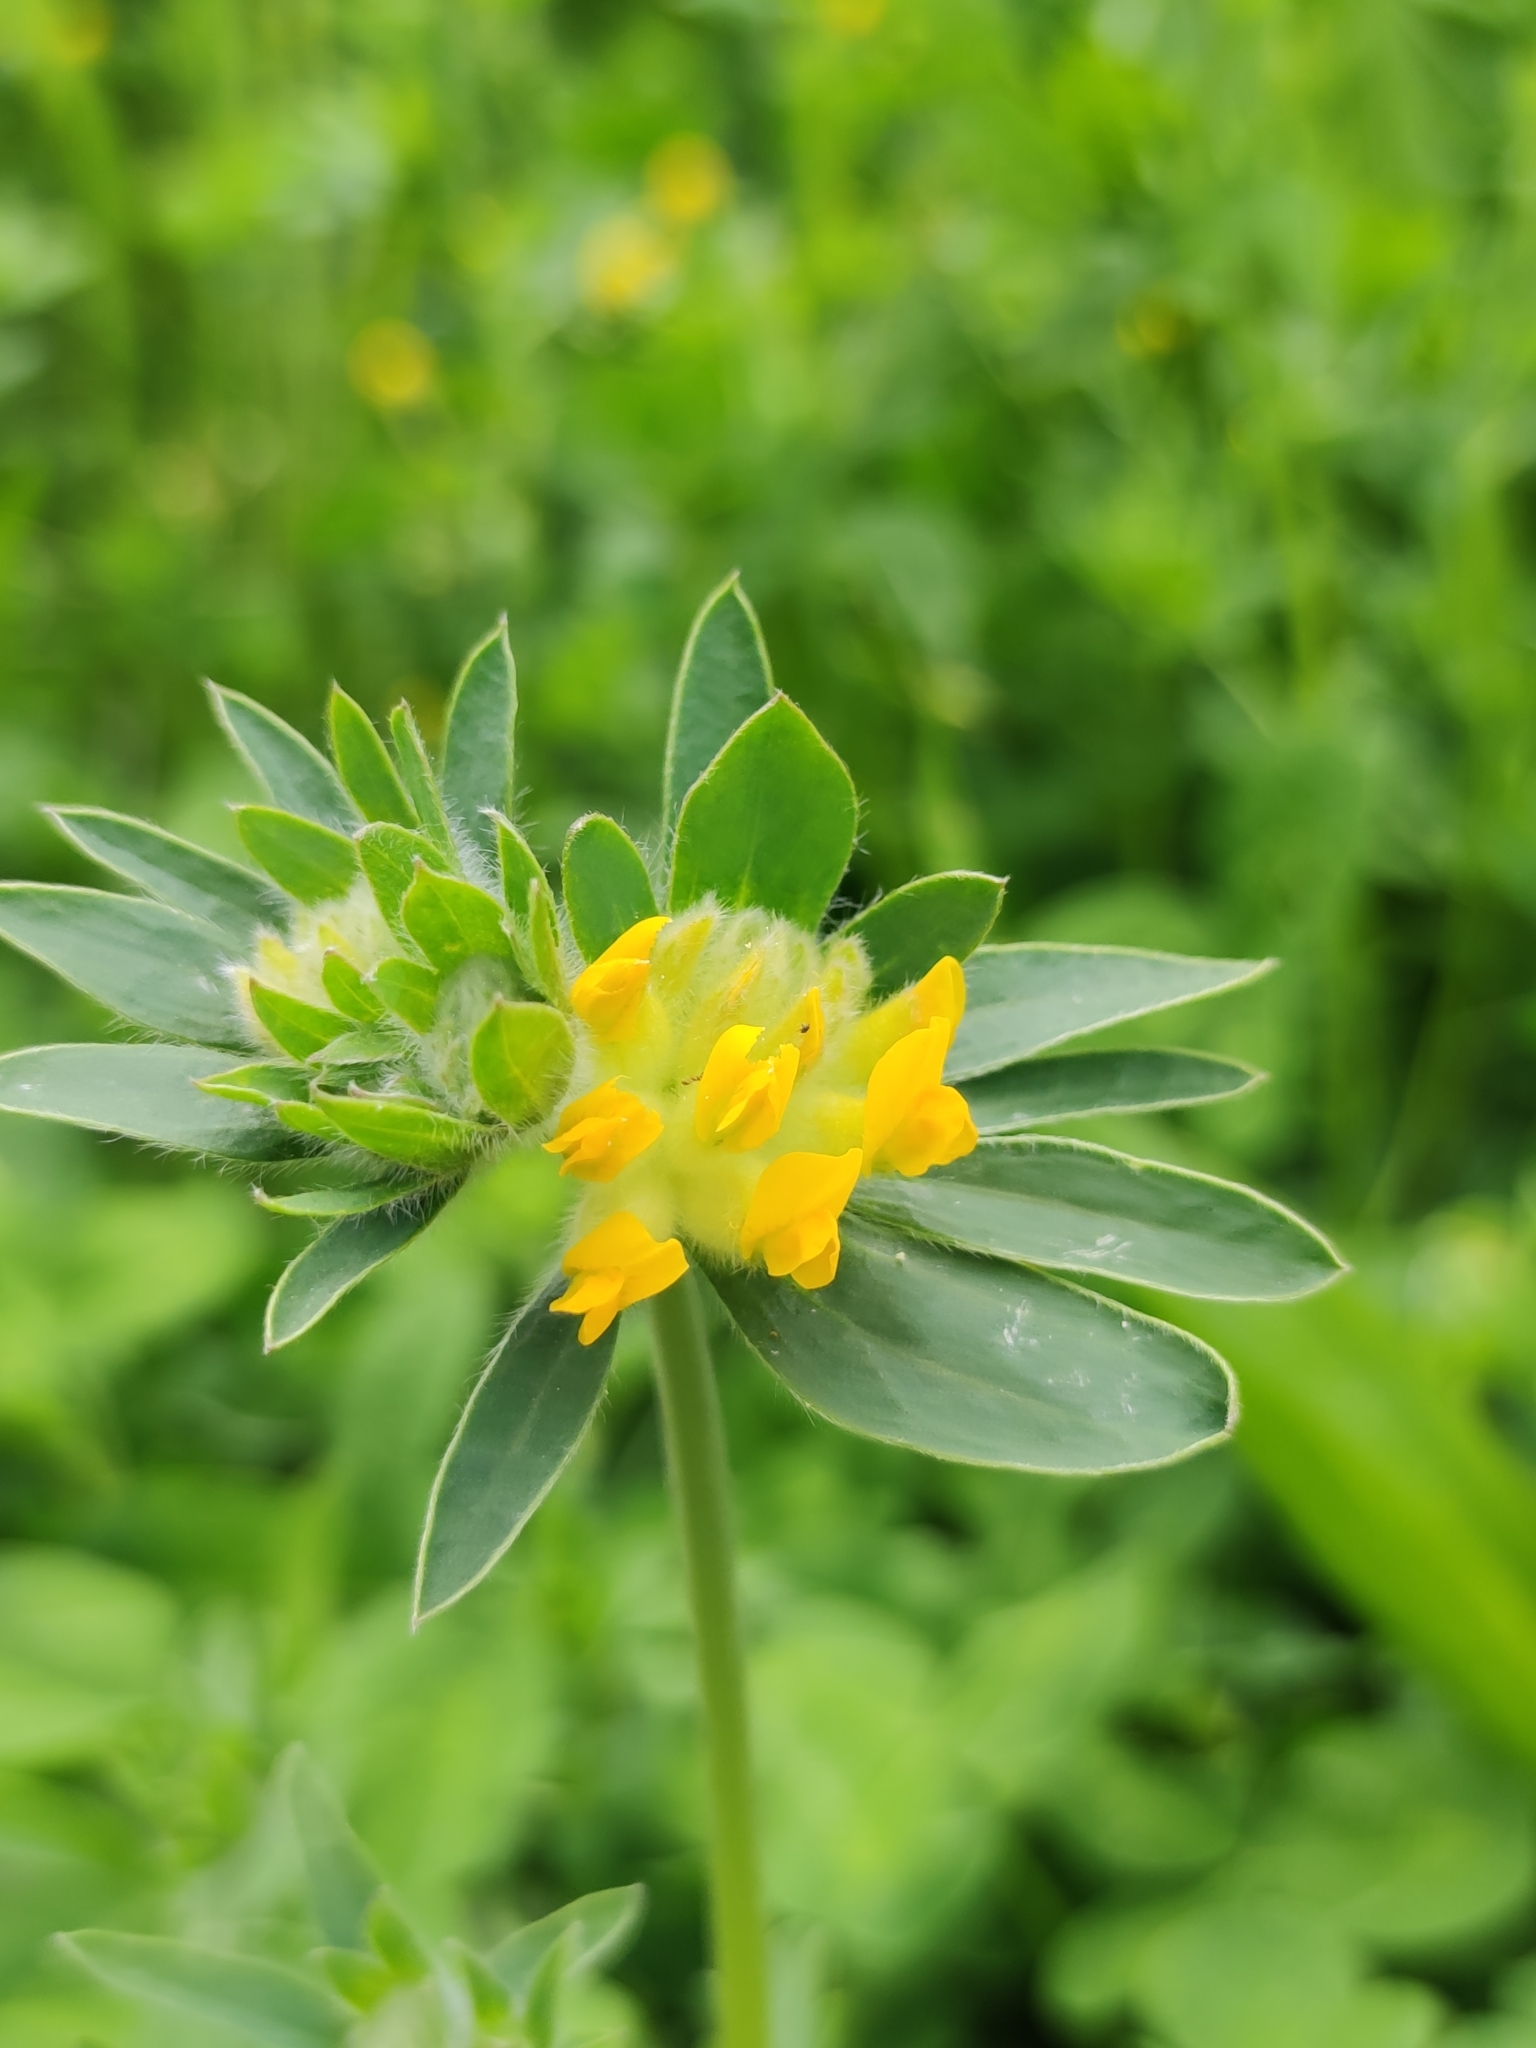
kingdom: Plantae
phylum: Tracheophyta
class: Magnoliopsida
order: Fabales
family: Fabaceae
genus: Anthyllis
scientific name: Anthyllis vulneraria
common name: Kidney vetch
